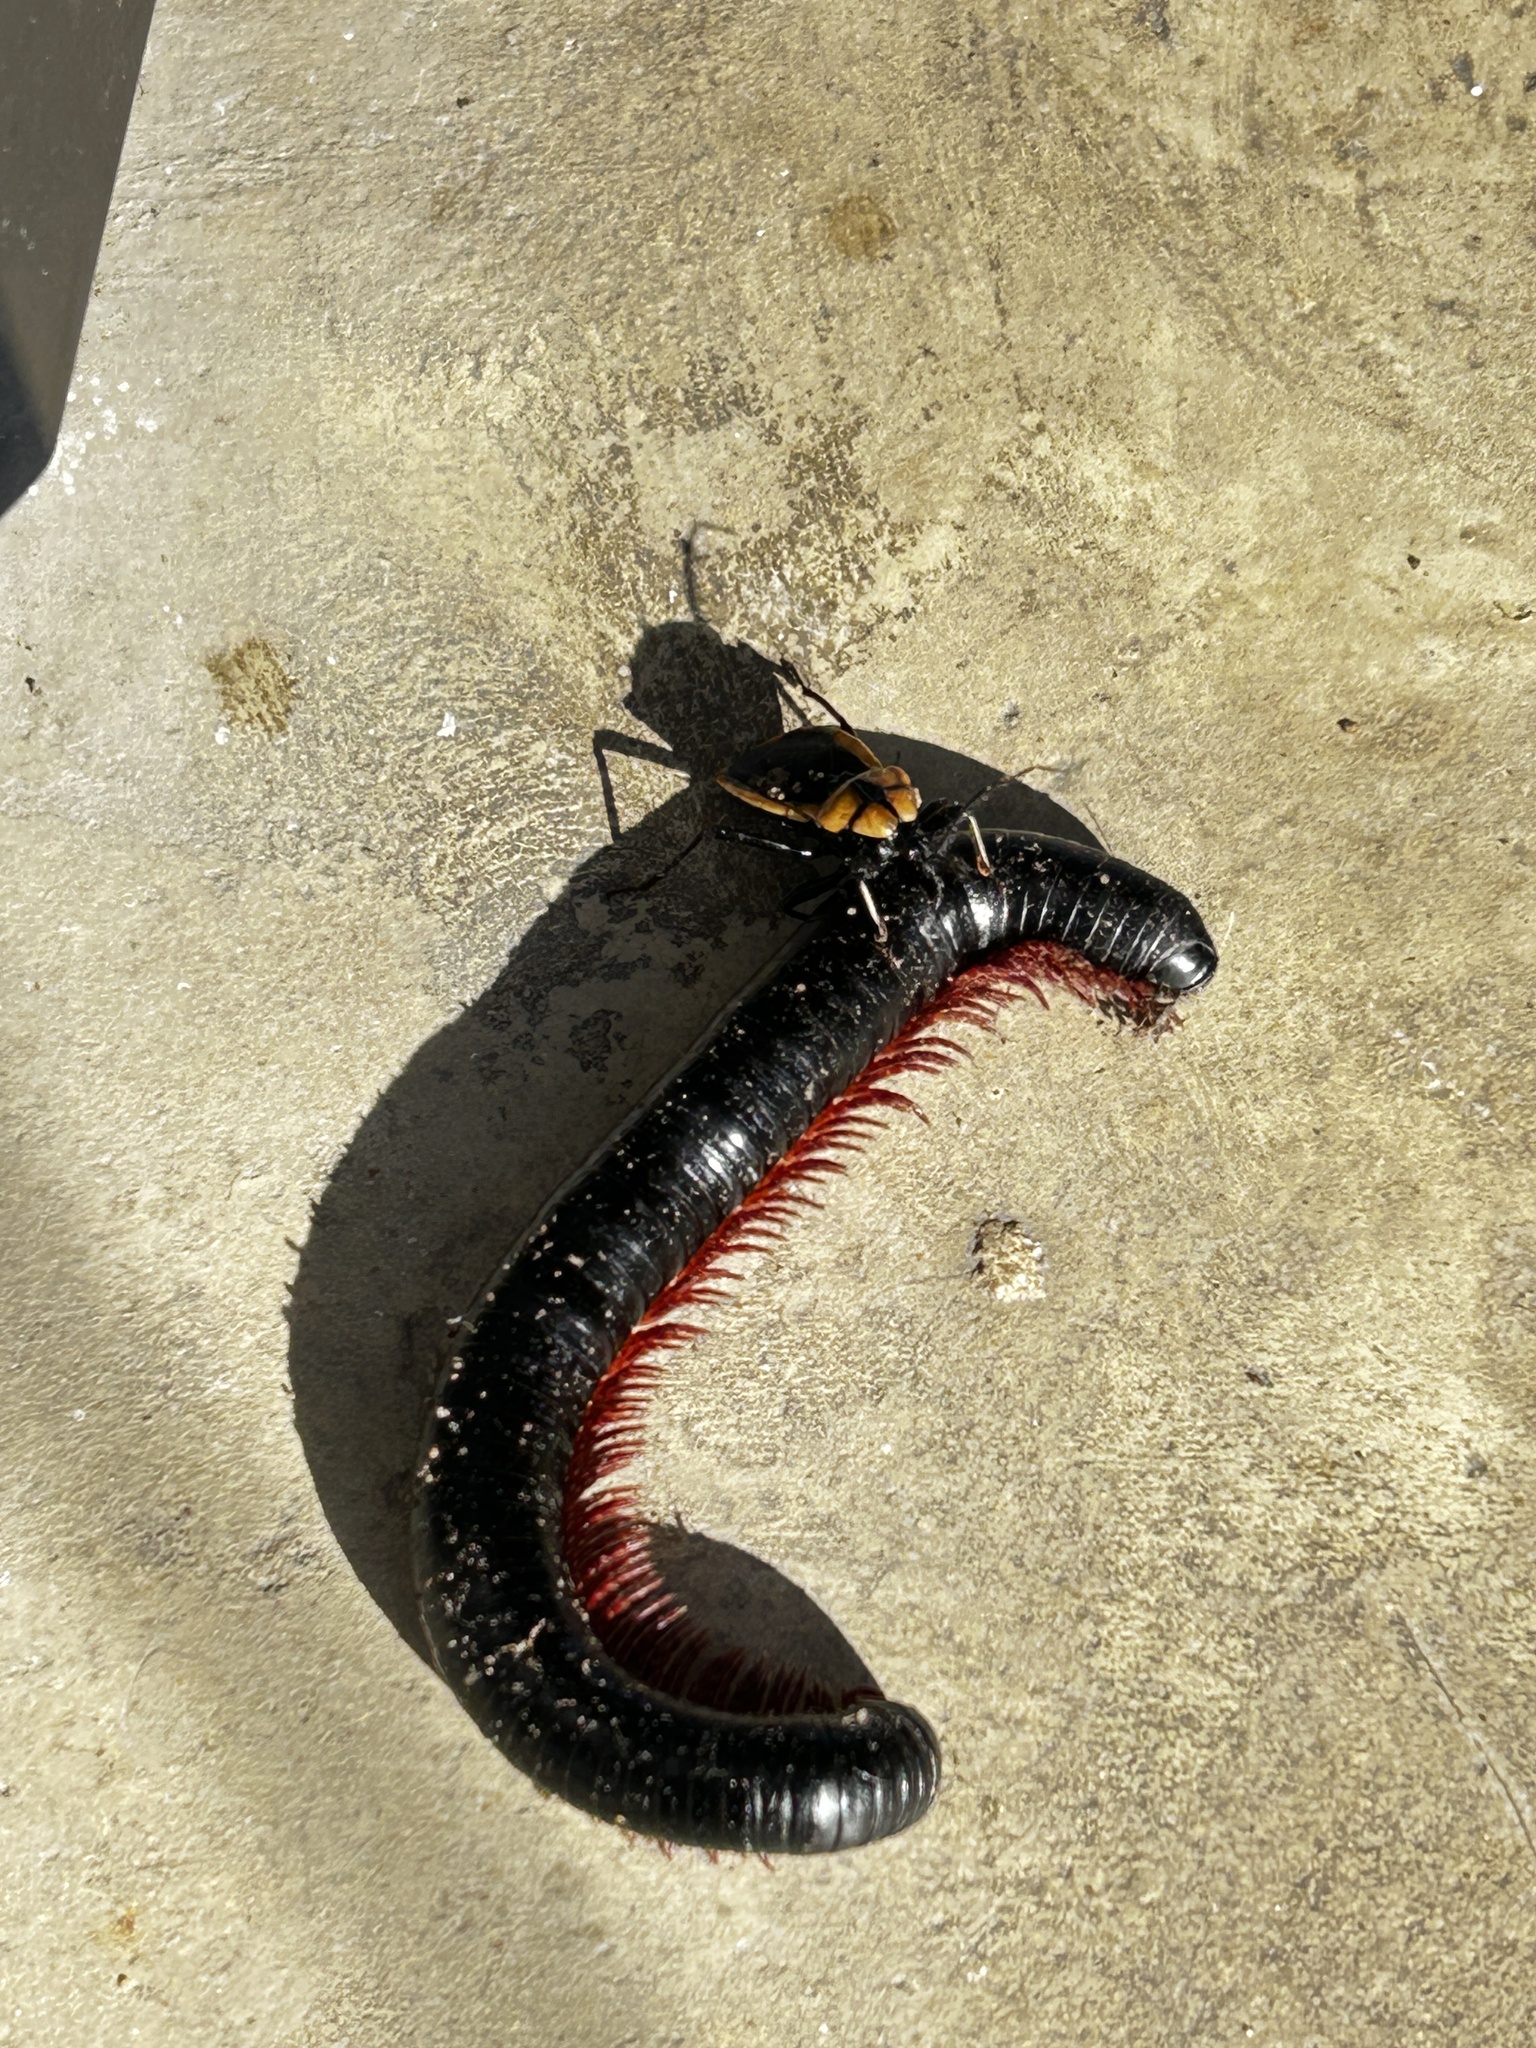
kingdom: Animalia
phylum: Arthropoda
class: Insecta
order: Hemiptera
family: Reduviidae
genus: Ectrichodia
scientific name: Ectrichodia crux
